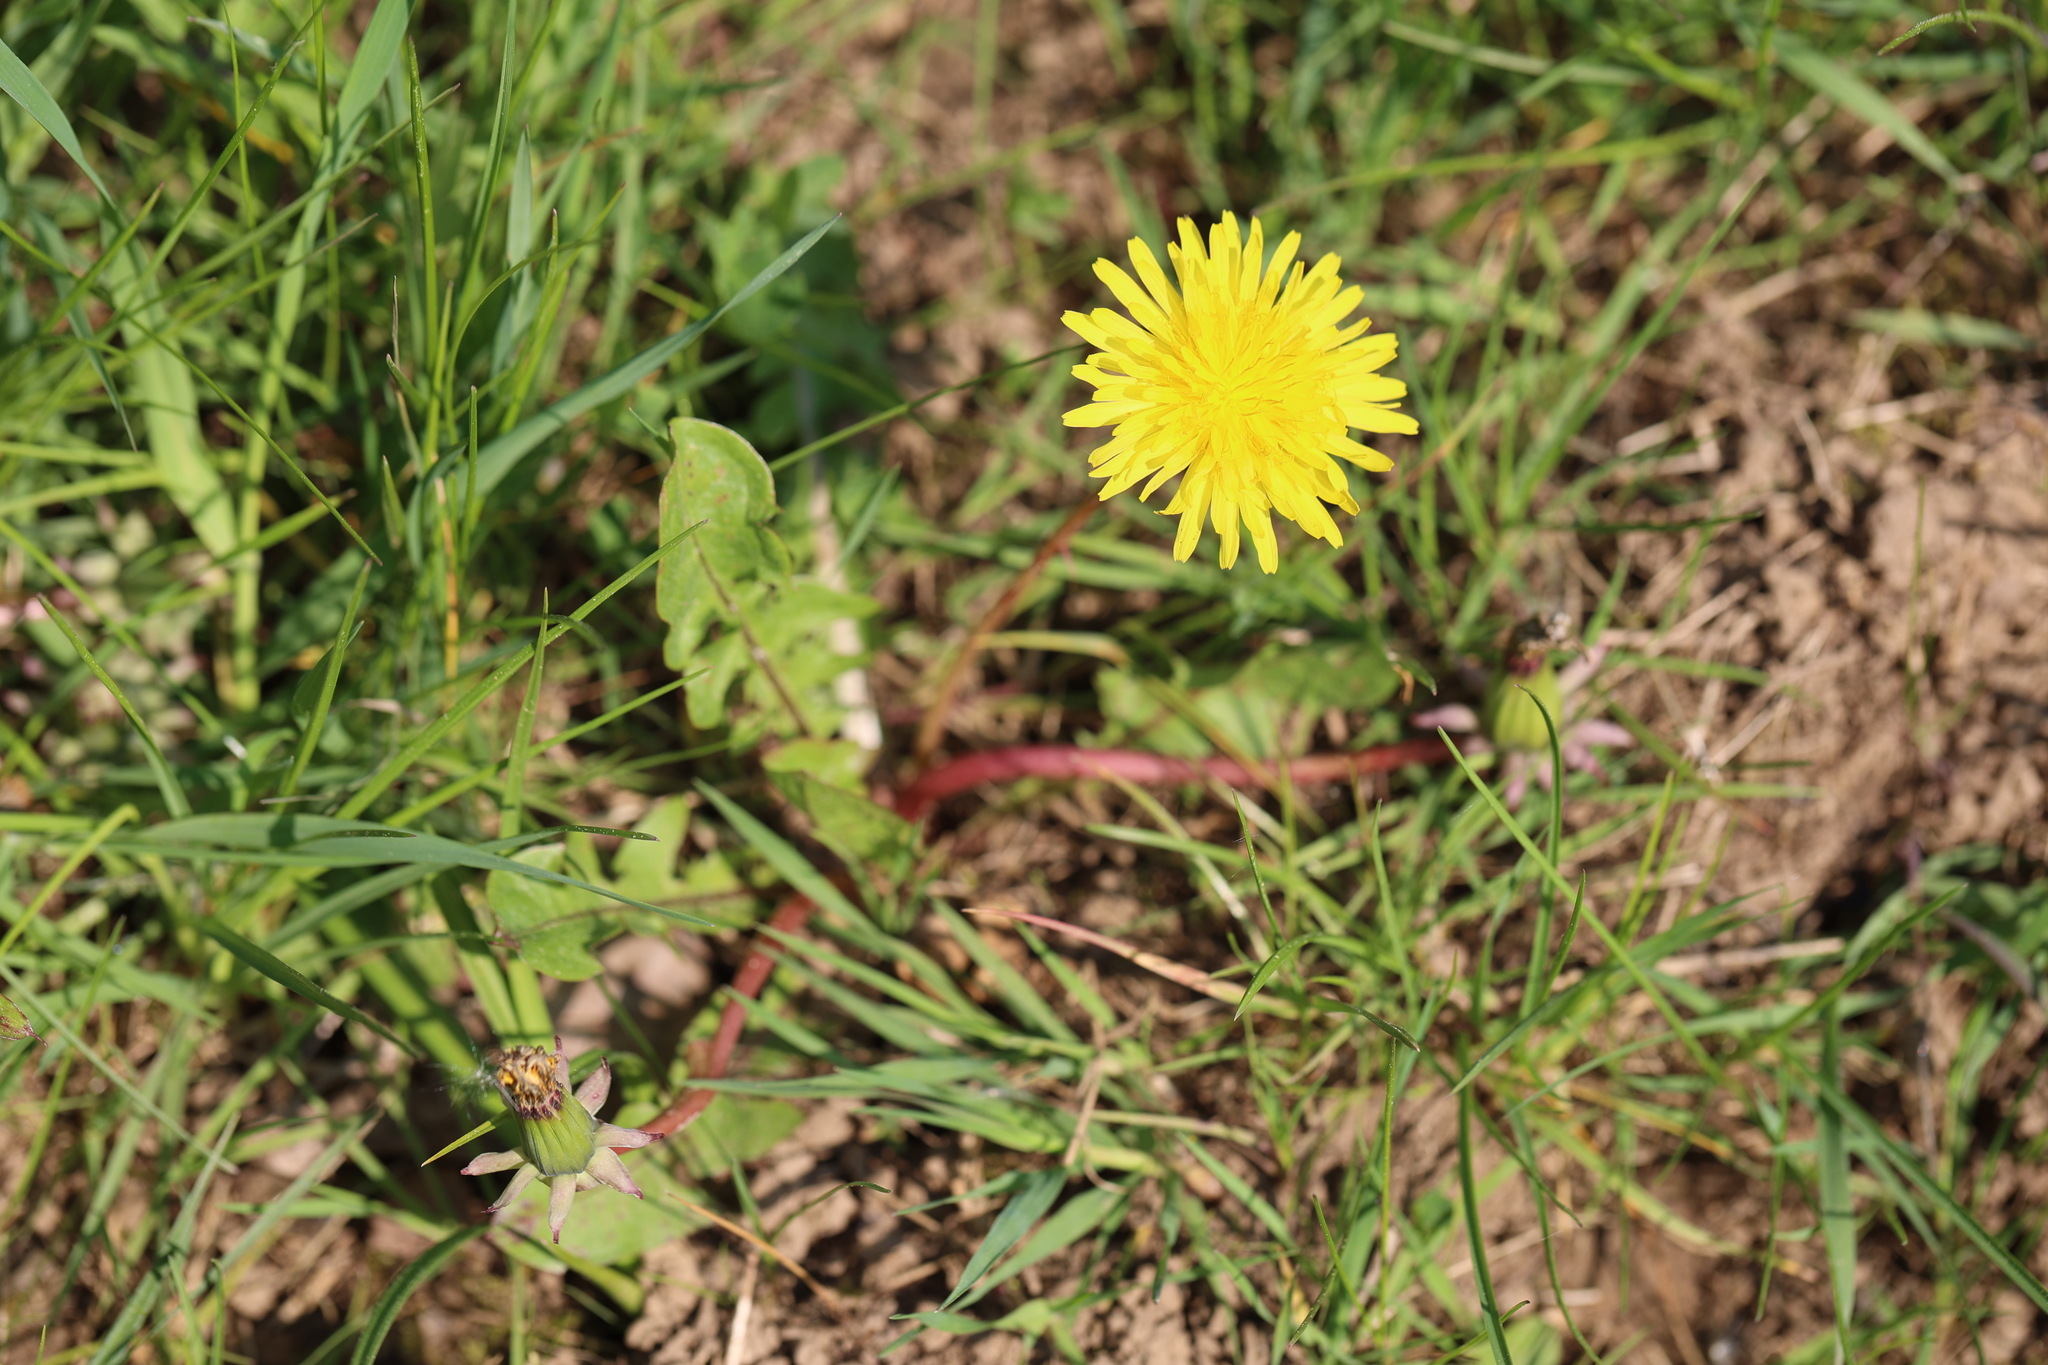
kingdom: Plantae
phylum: Tracheophyta
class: Magnoliopsida
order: Asterales
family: Asteraceae
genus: Taraxacum
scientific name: Taraxacum officinale
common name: Common dandelion
